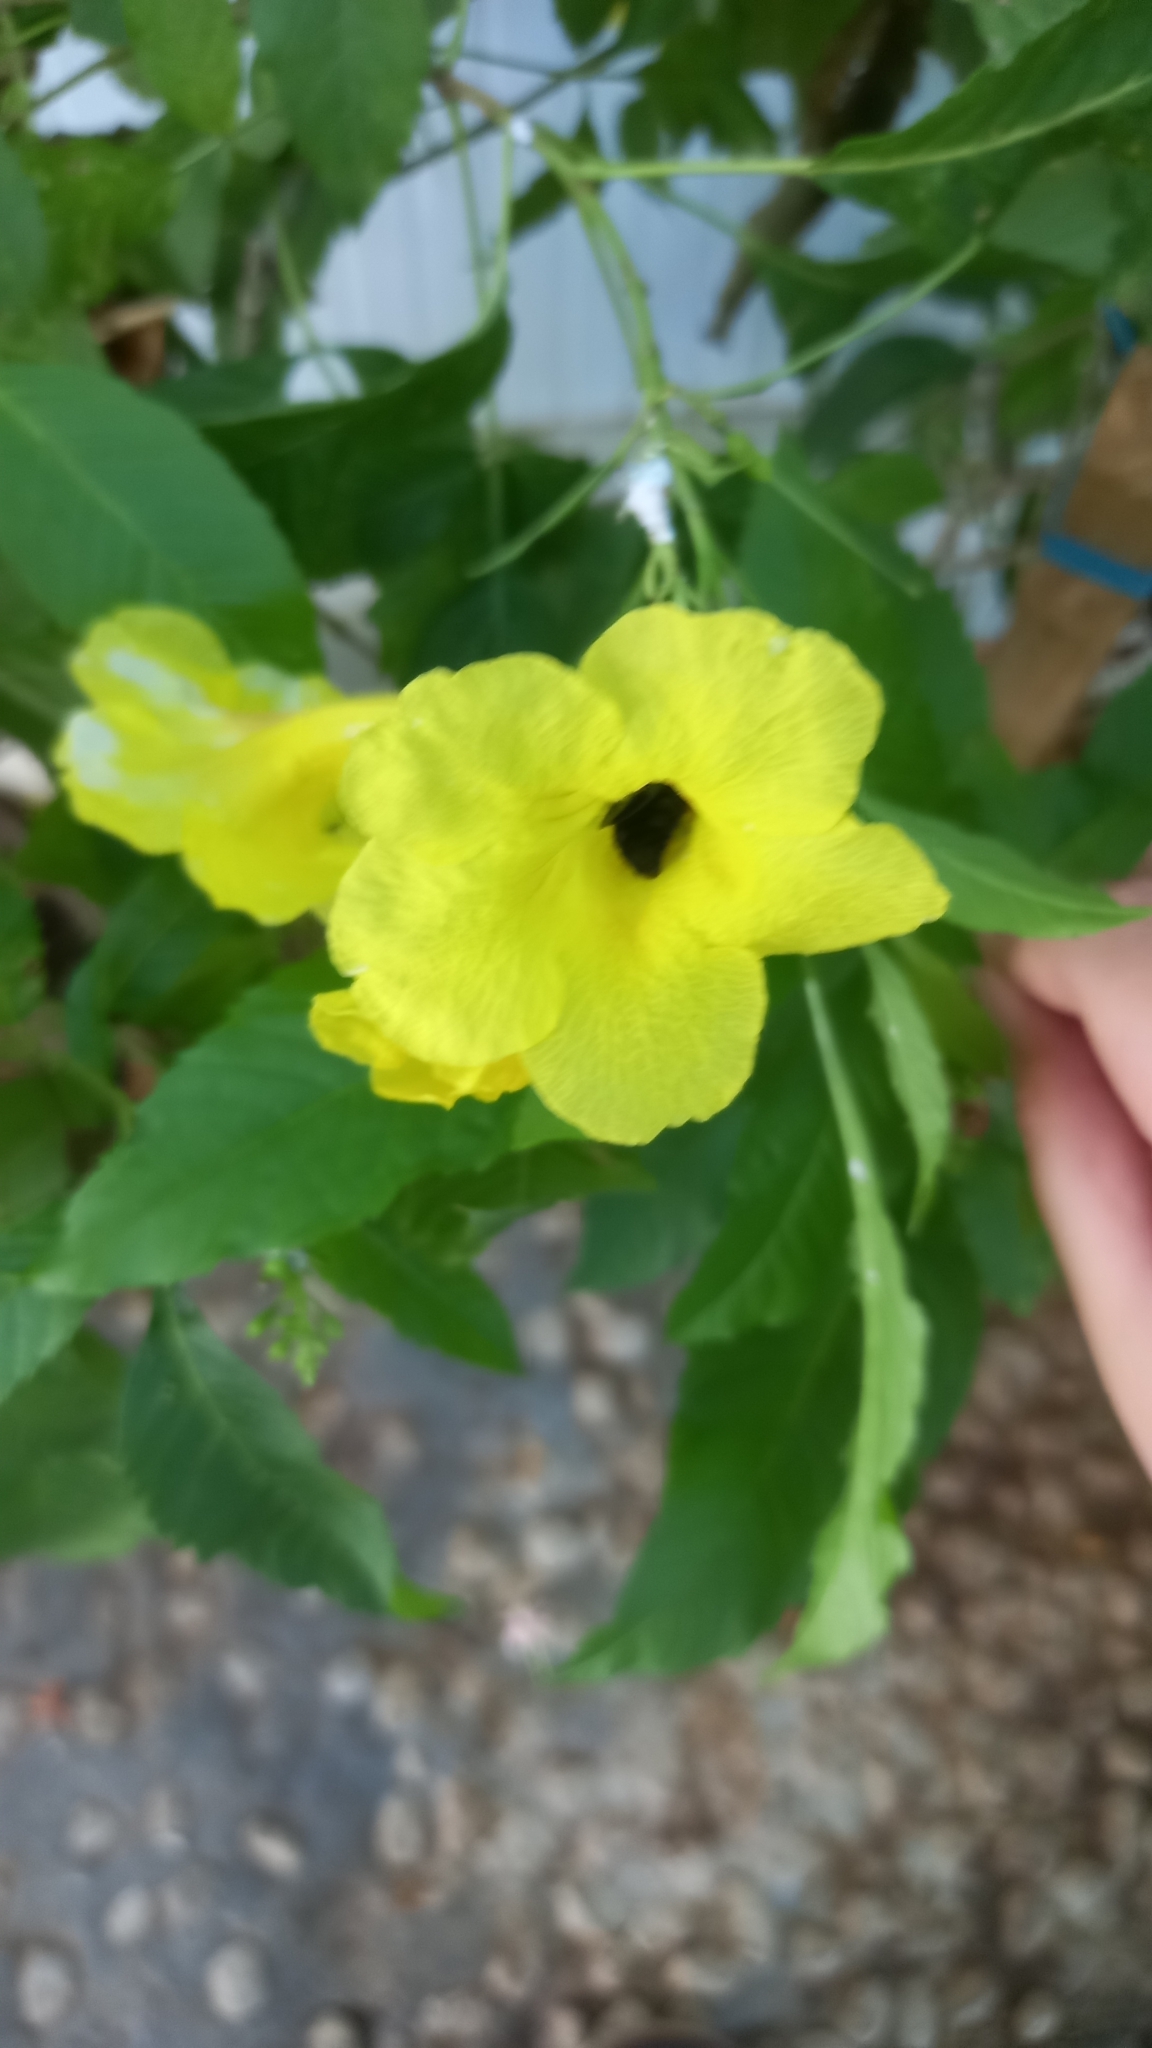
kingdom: Animalia
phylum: Arthropoda
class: Insecta
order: Hymenoptera
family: Scoliidae
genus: Campsomeriella
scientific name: Campsomeriella collaris
